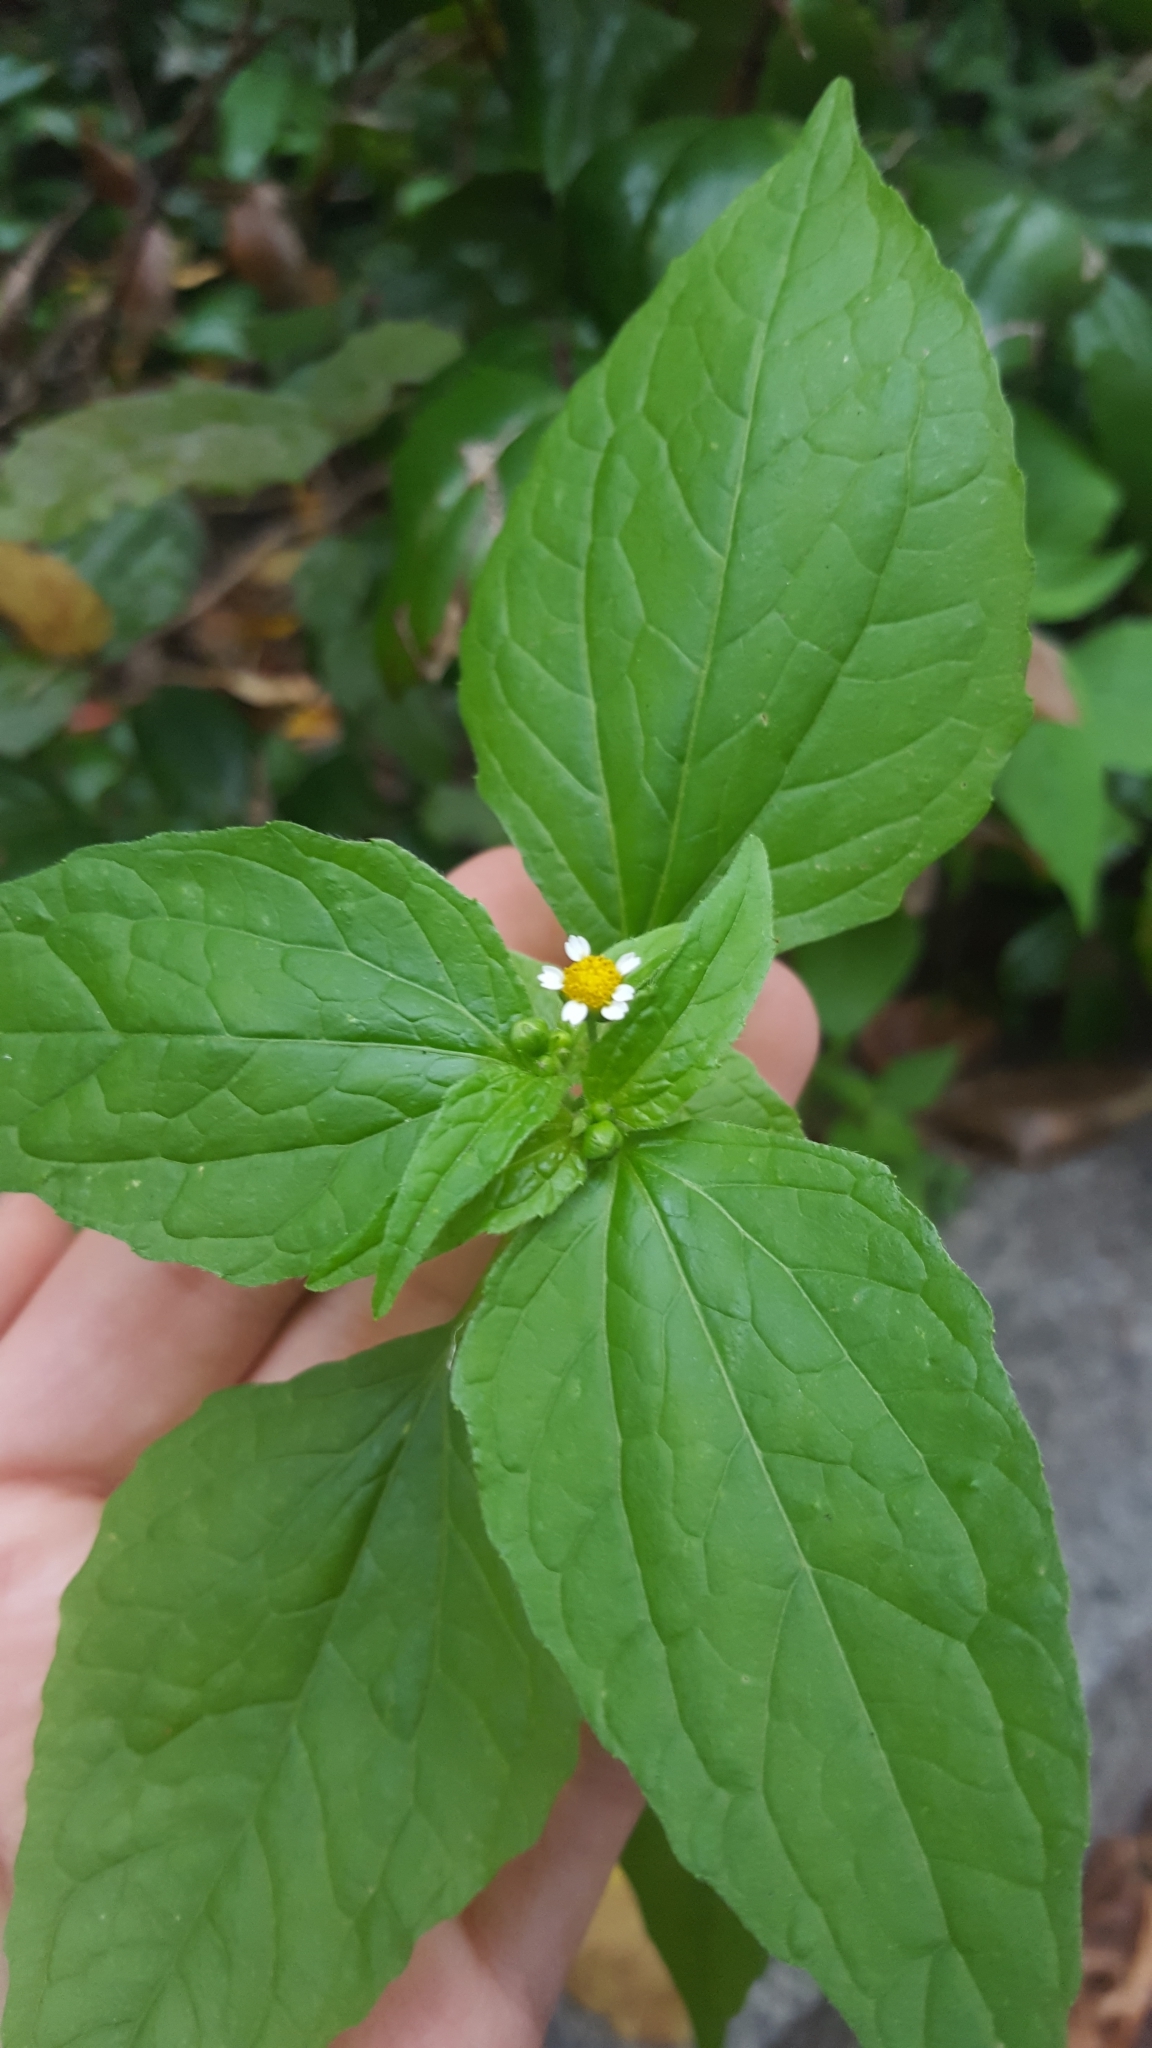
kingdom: Plantae
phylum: Tracheophyta
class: Magnoliopsida
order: Asterales
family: Asteraceae
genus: Galinsoga
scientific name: Galinsoga parviflora
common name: Gallant soldier
